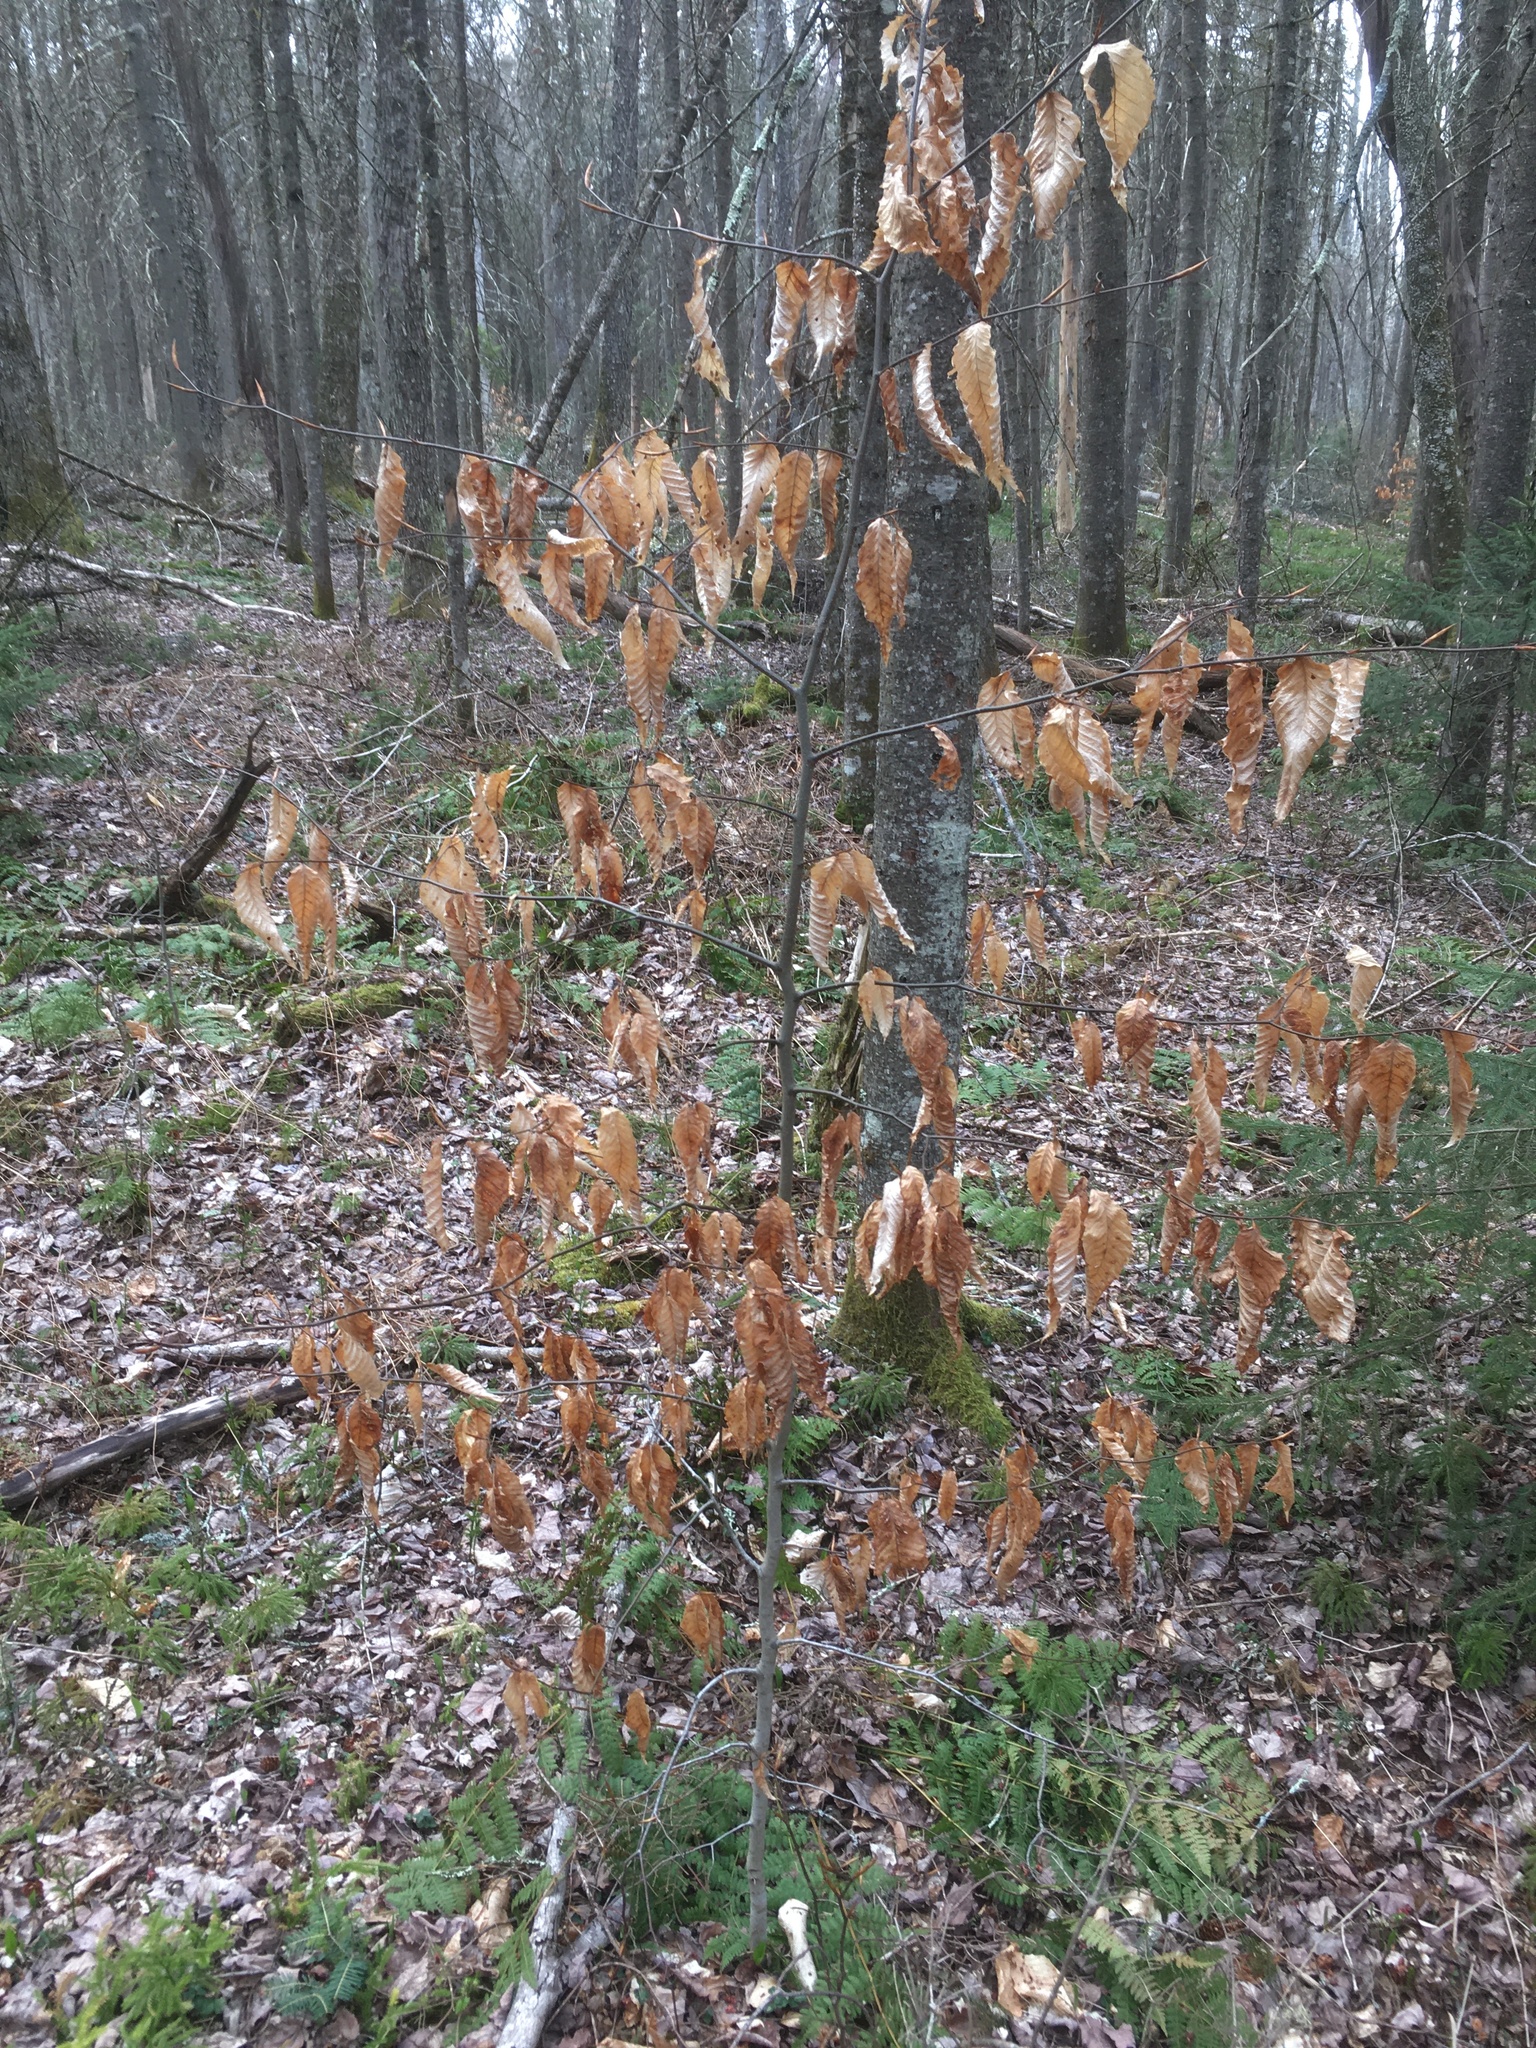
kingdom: Plantae
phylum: Tracheophyta
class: Magnoliopsida
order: Fagales
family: Fagaceae
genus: Fagus
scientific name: Fagus grandifolia
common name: American beech
